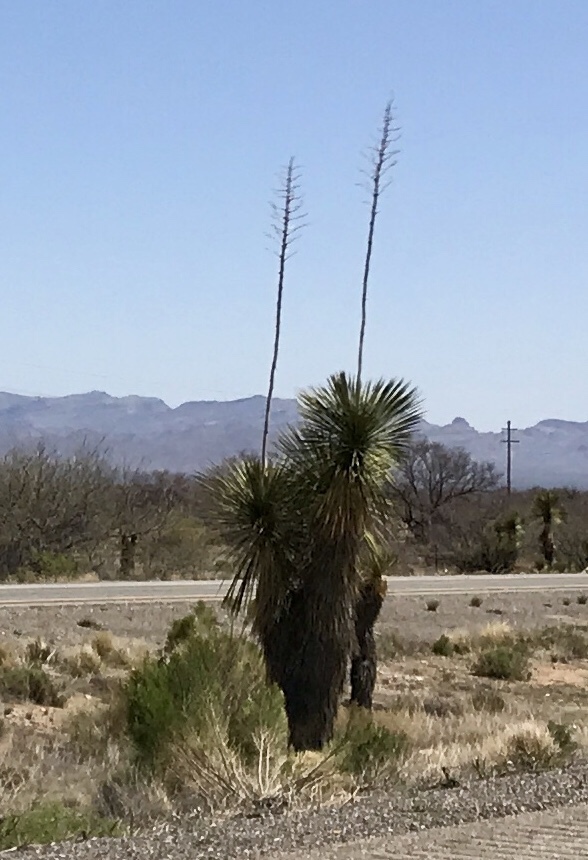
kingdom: Plantae
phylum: Tracheophyta
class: Liliopsida
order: Asparagales
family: Asparagaceae
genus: Yucca
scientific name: Yucca elata
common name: Palmella
